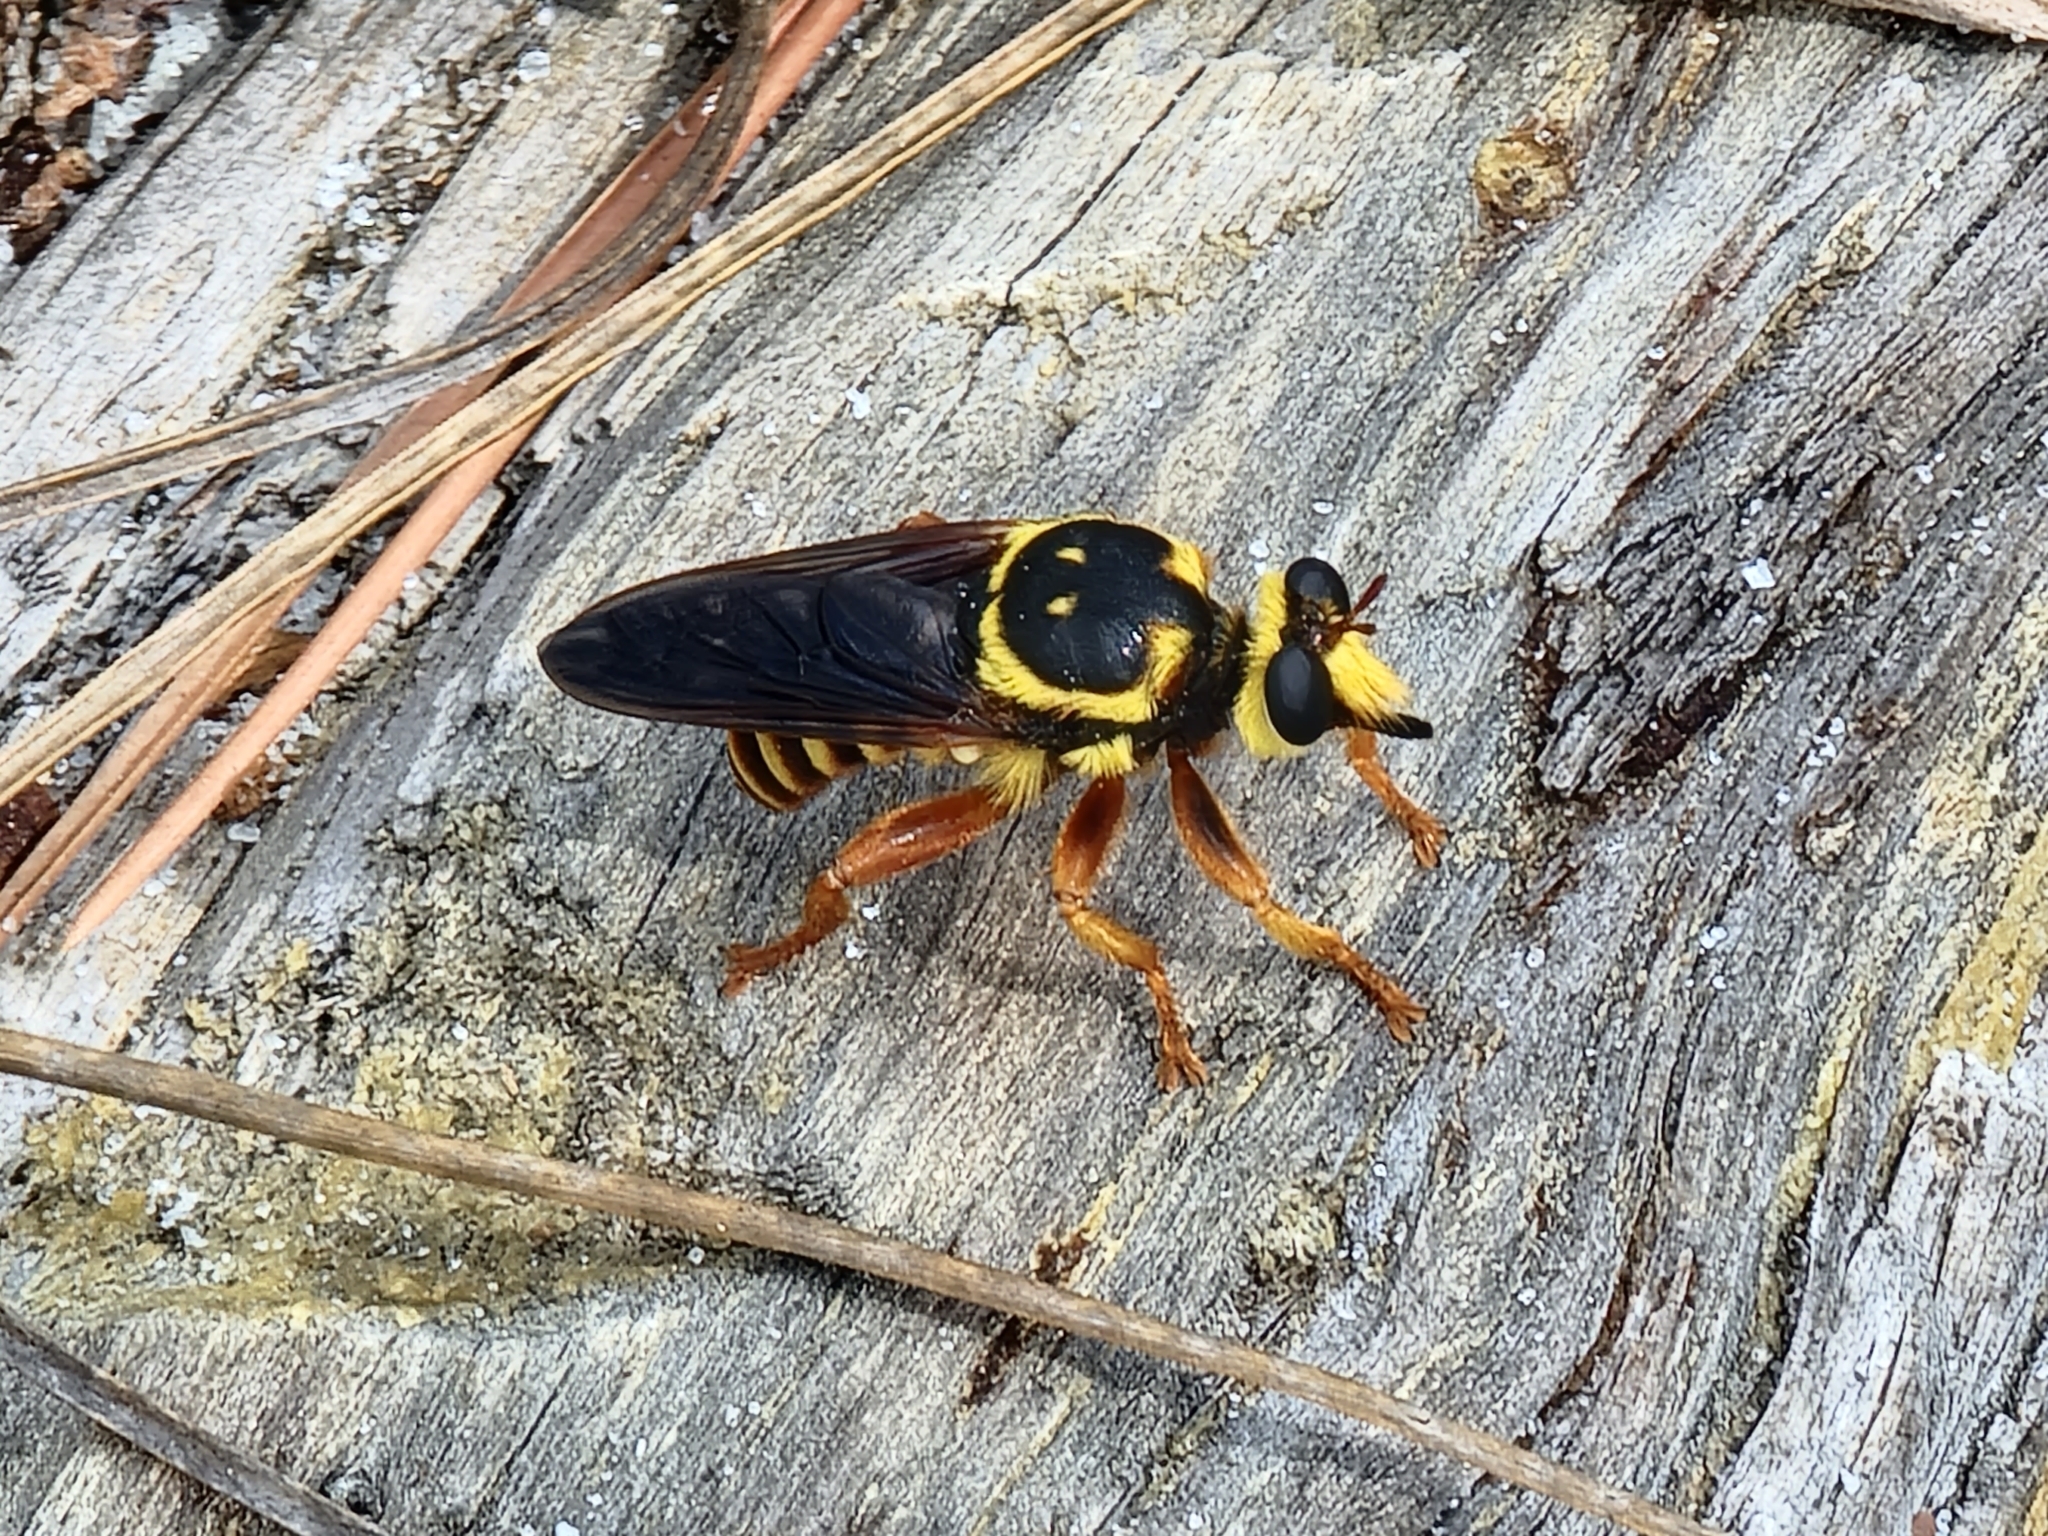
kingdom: Animalia
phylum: Arthropoda
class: Insecta
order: Diptera
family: Asilidae
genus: Laphria
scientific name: Laphria saffrana
